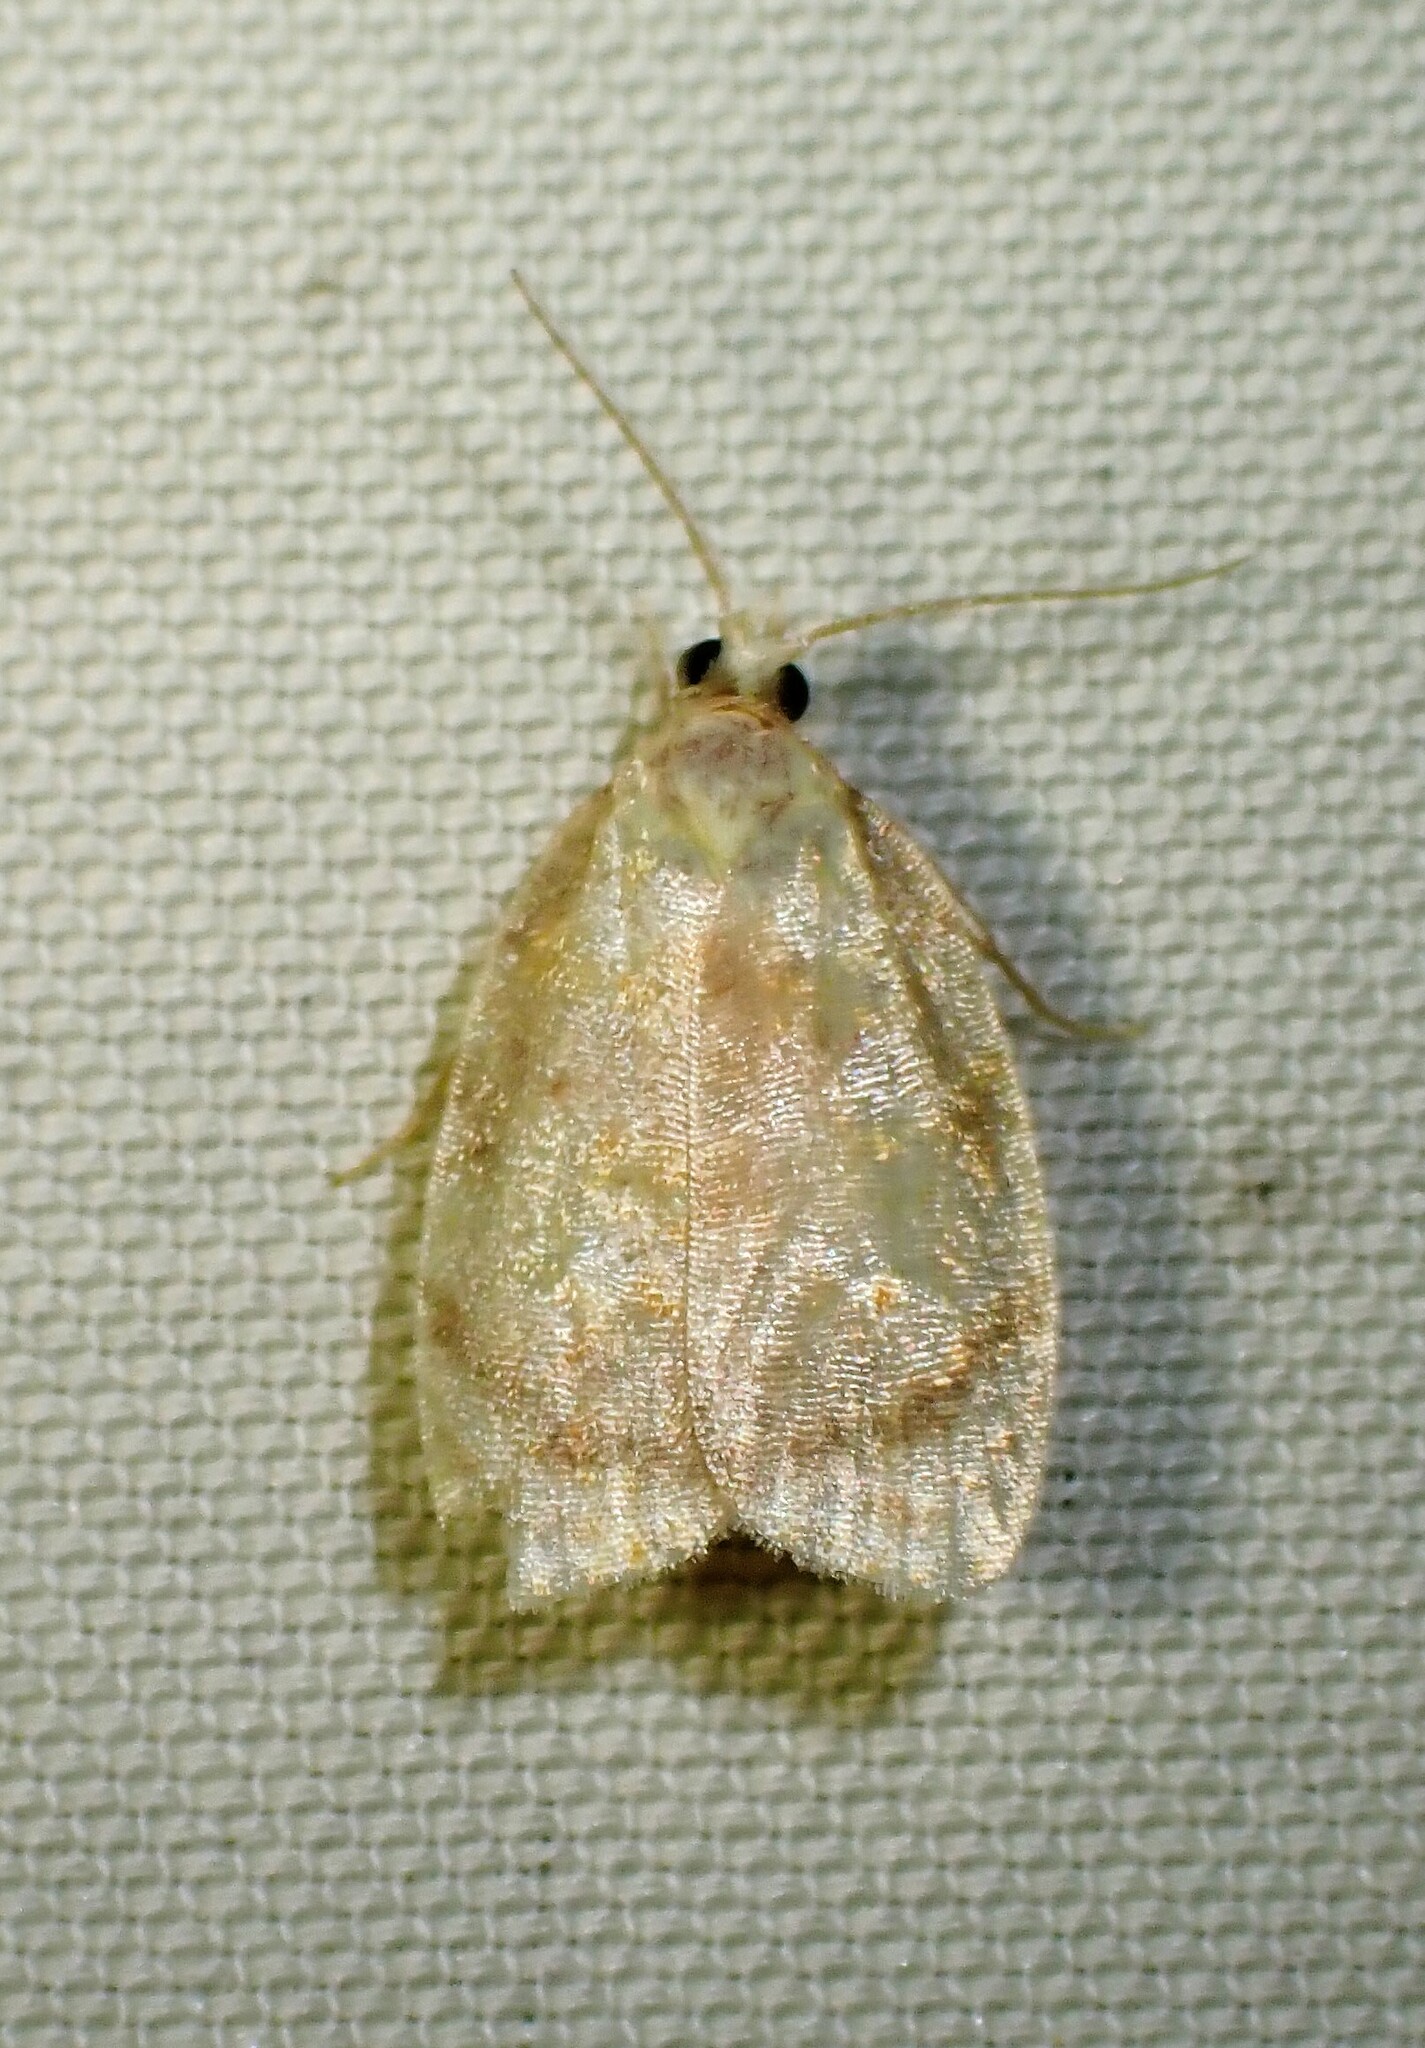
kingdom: Animalia
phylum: Arthropoda
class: Insecta
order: Lepidoptera
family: Tortricidae
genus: Acleris
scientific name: Acleris curvalana
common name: Blueberry leaftier moth
